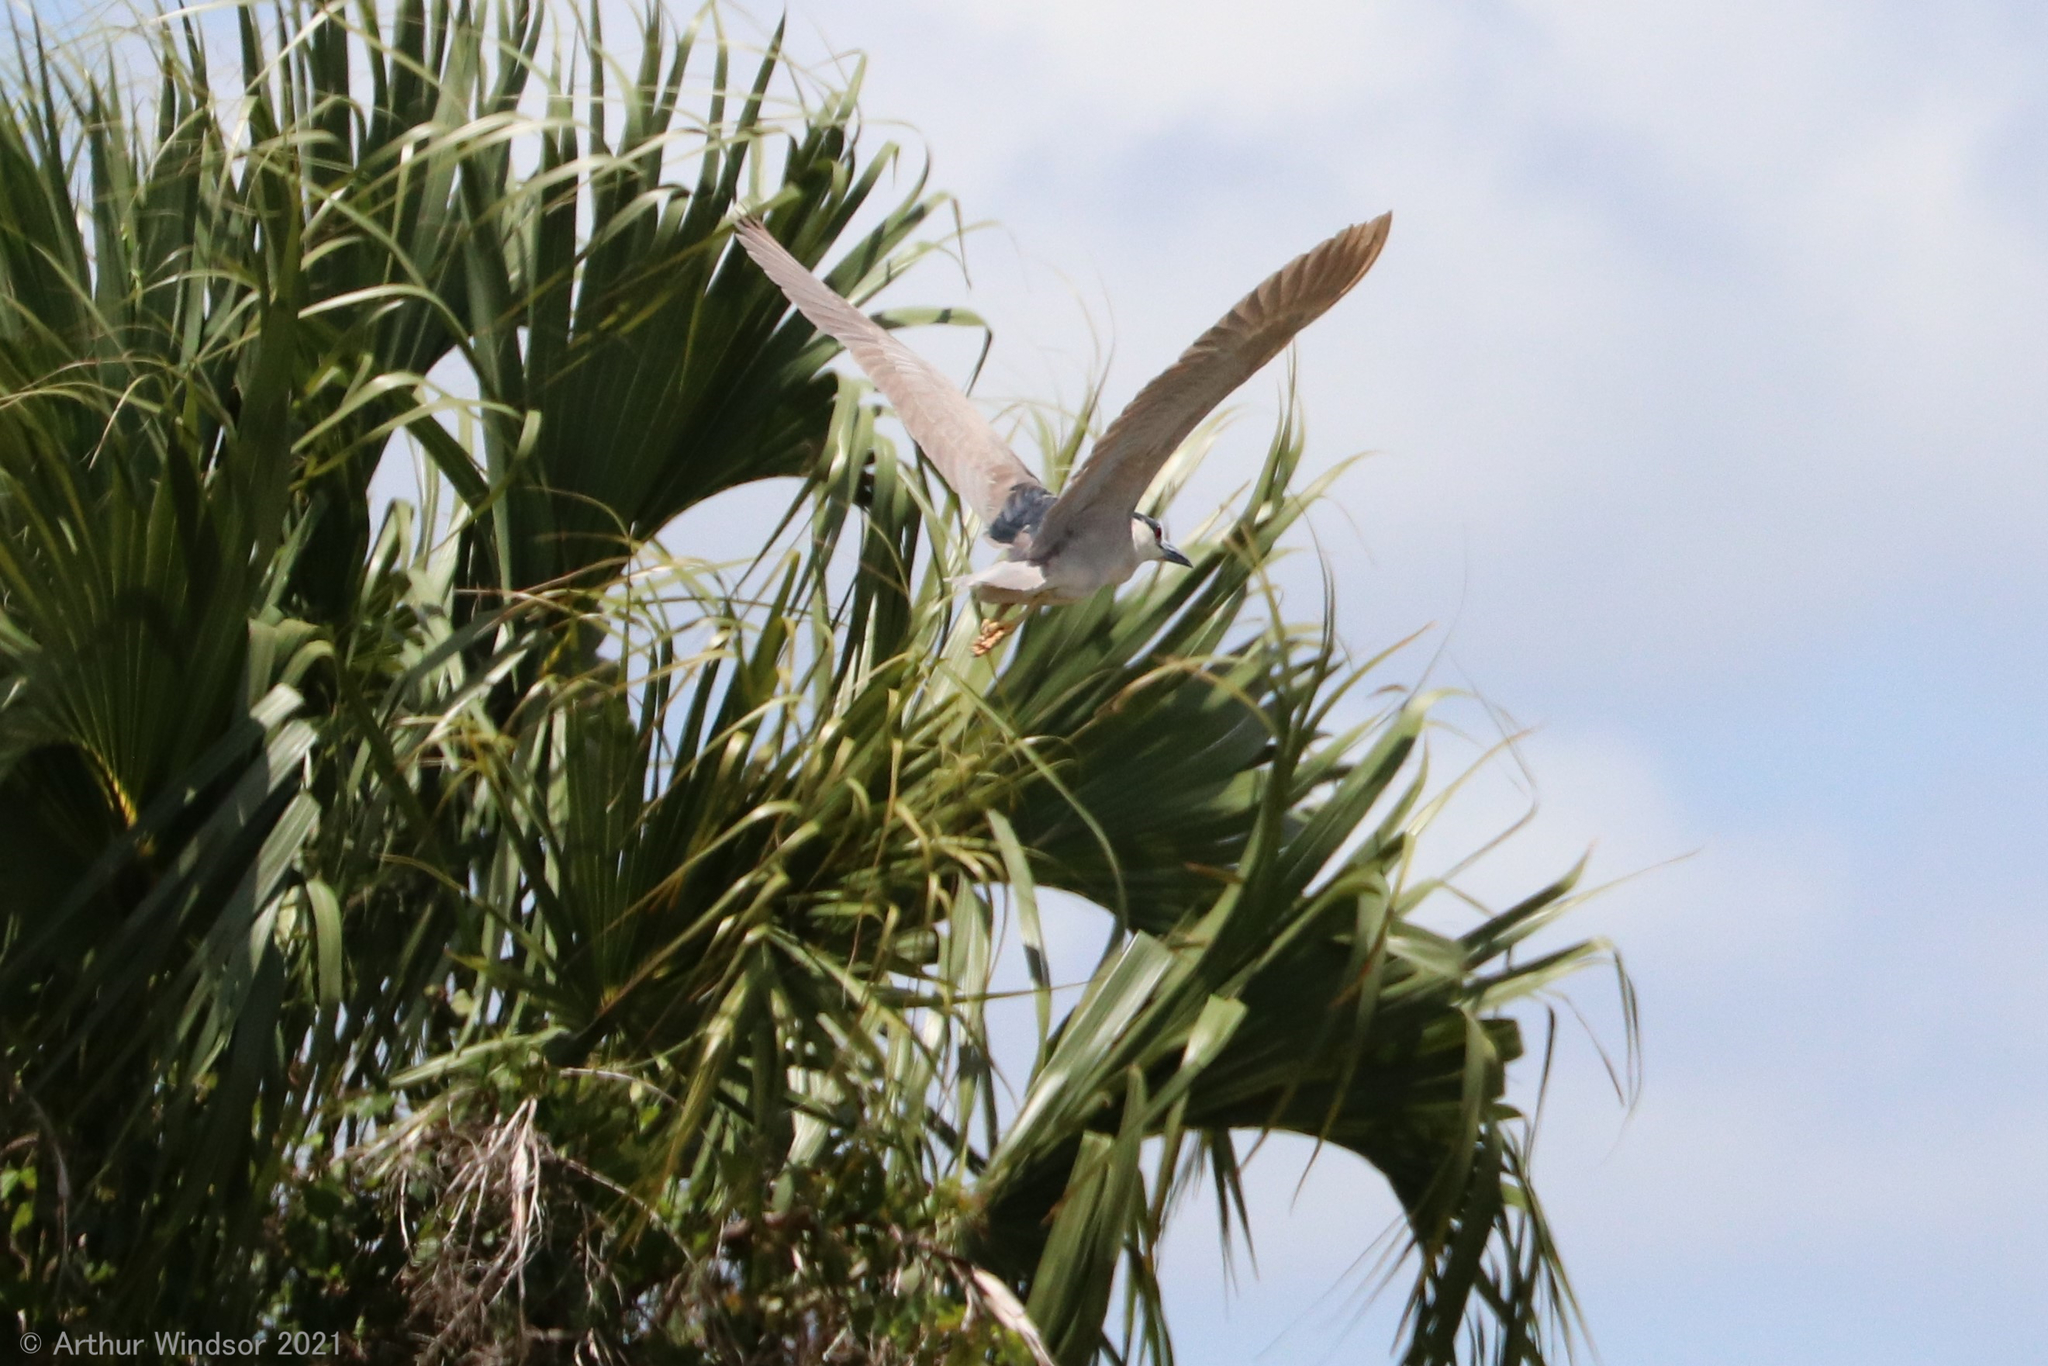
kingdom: Animalia
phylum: Chordata
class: Aves
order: Pelecaniformes
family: Ardeidae
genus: Nycticorax
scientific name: Nycticorax nycticorax
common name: Black-crowned night heron
